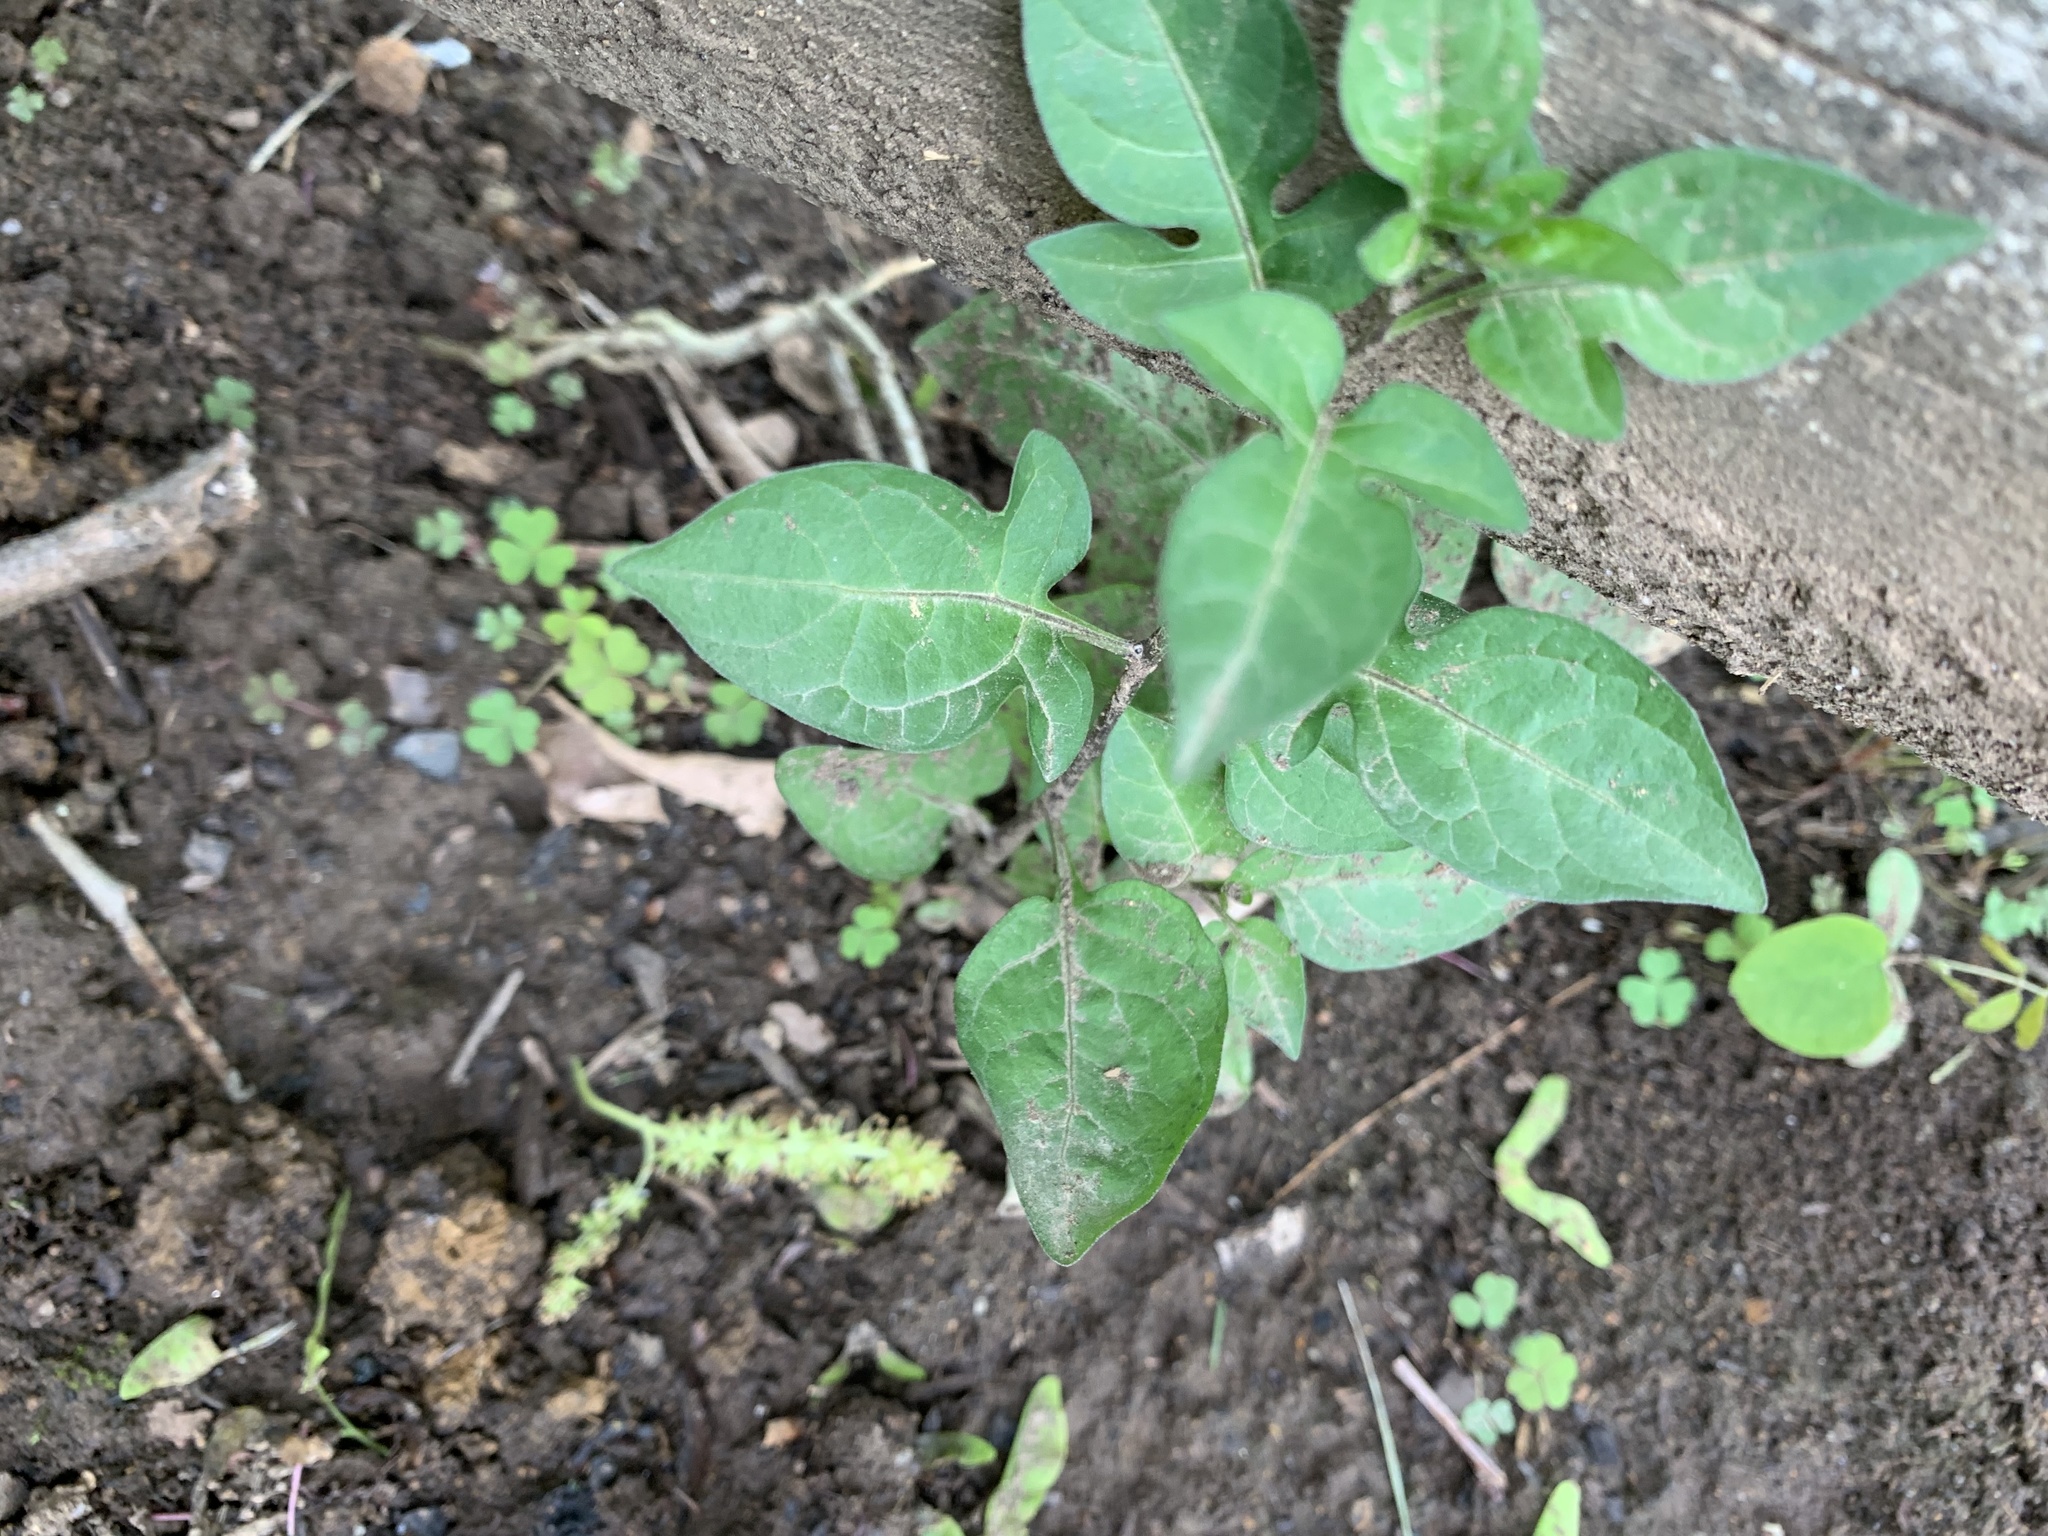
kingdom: Plantae
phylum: Tracheophyta
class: Magnoliopsida
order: Solanales
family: Solanaceae
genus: Solanum
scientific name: Solanum dulcamara
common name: Climbing nightshade
